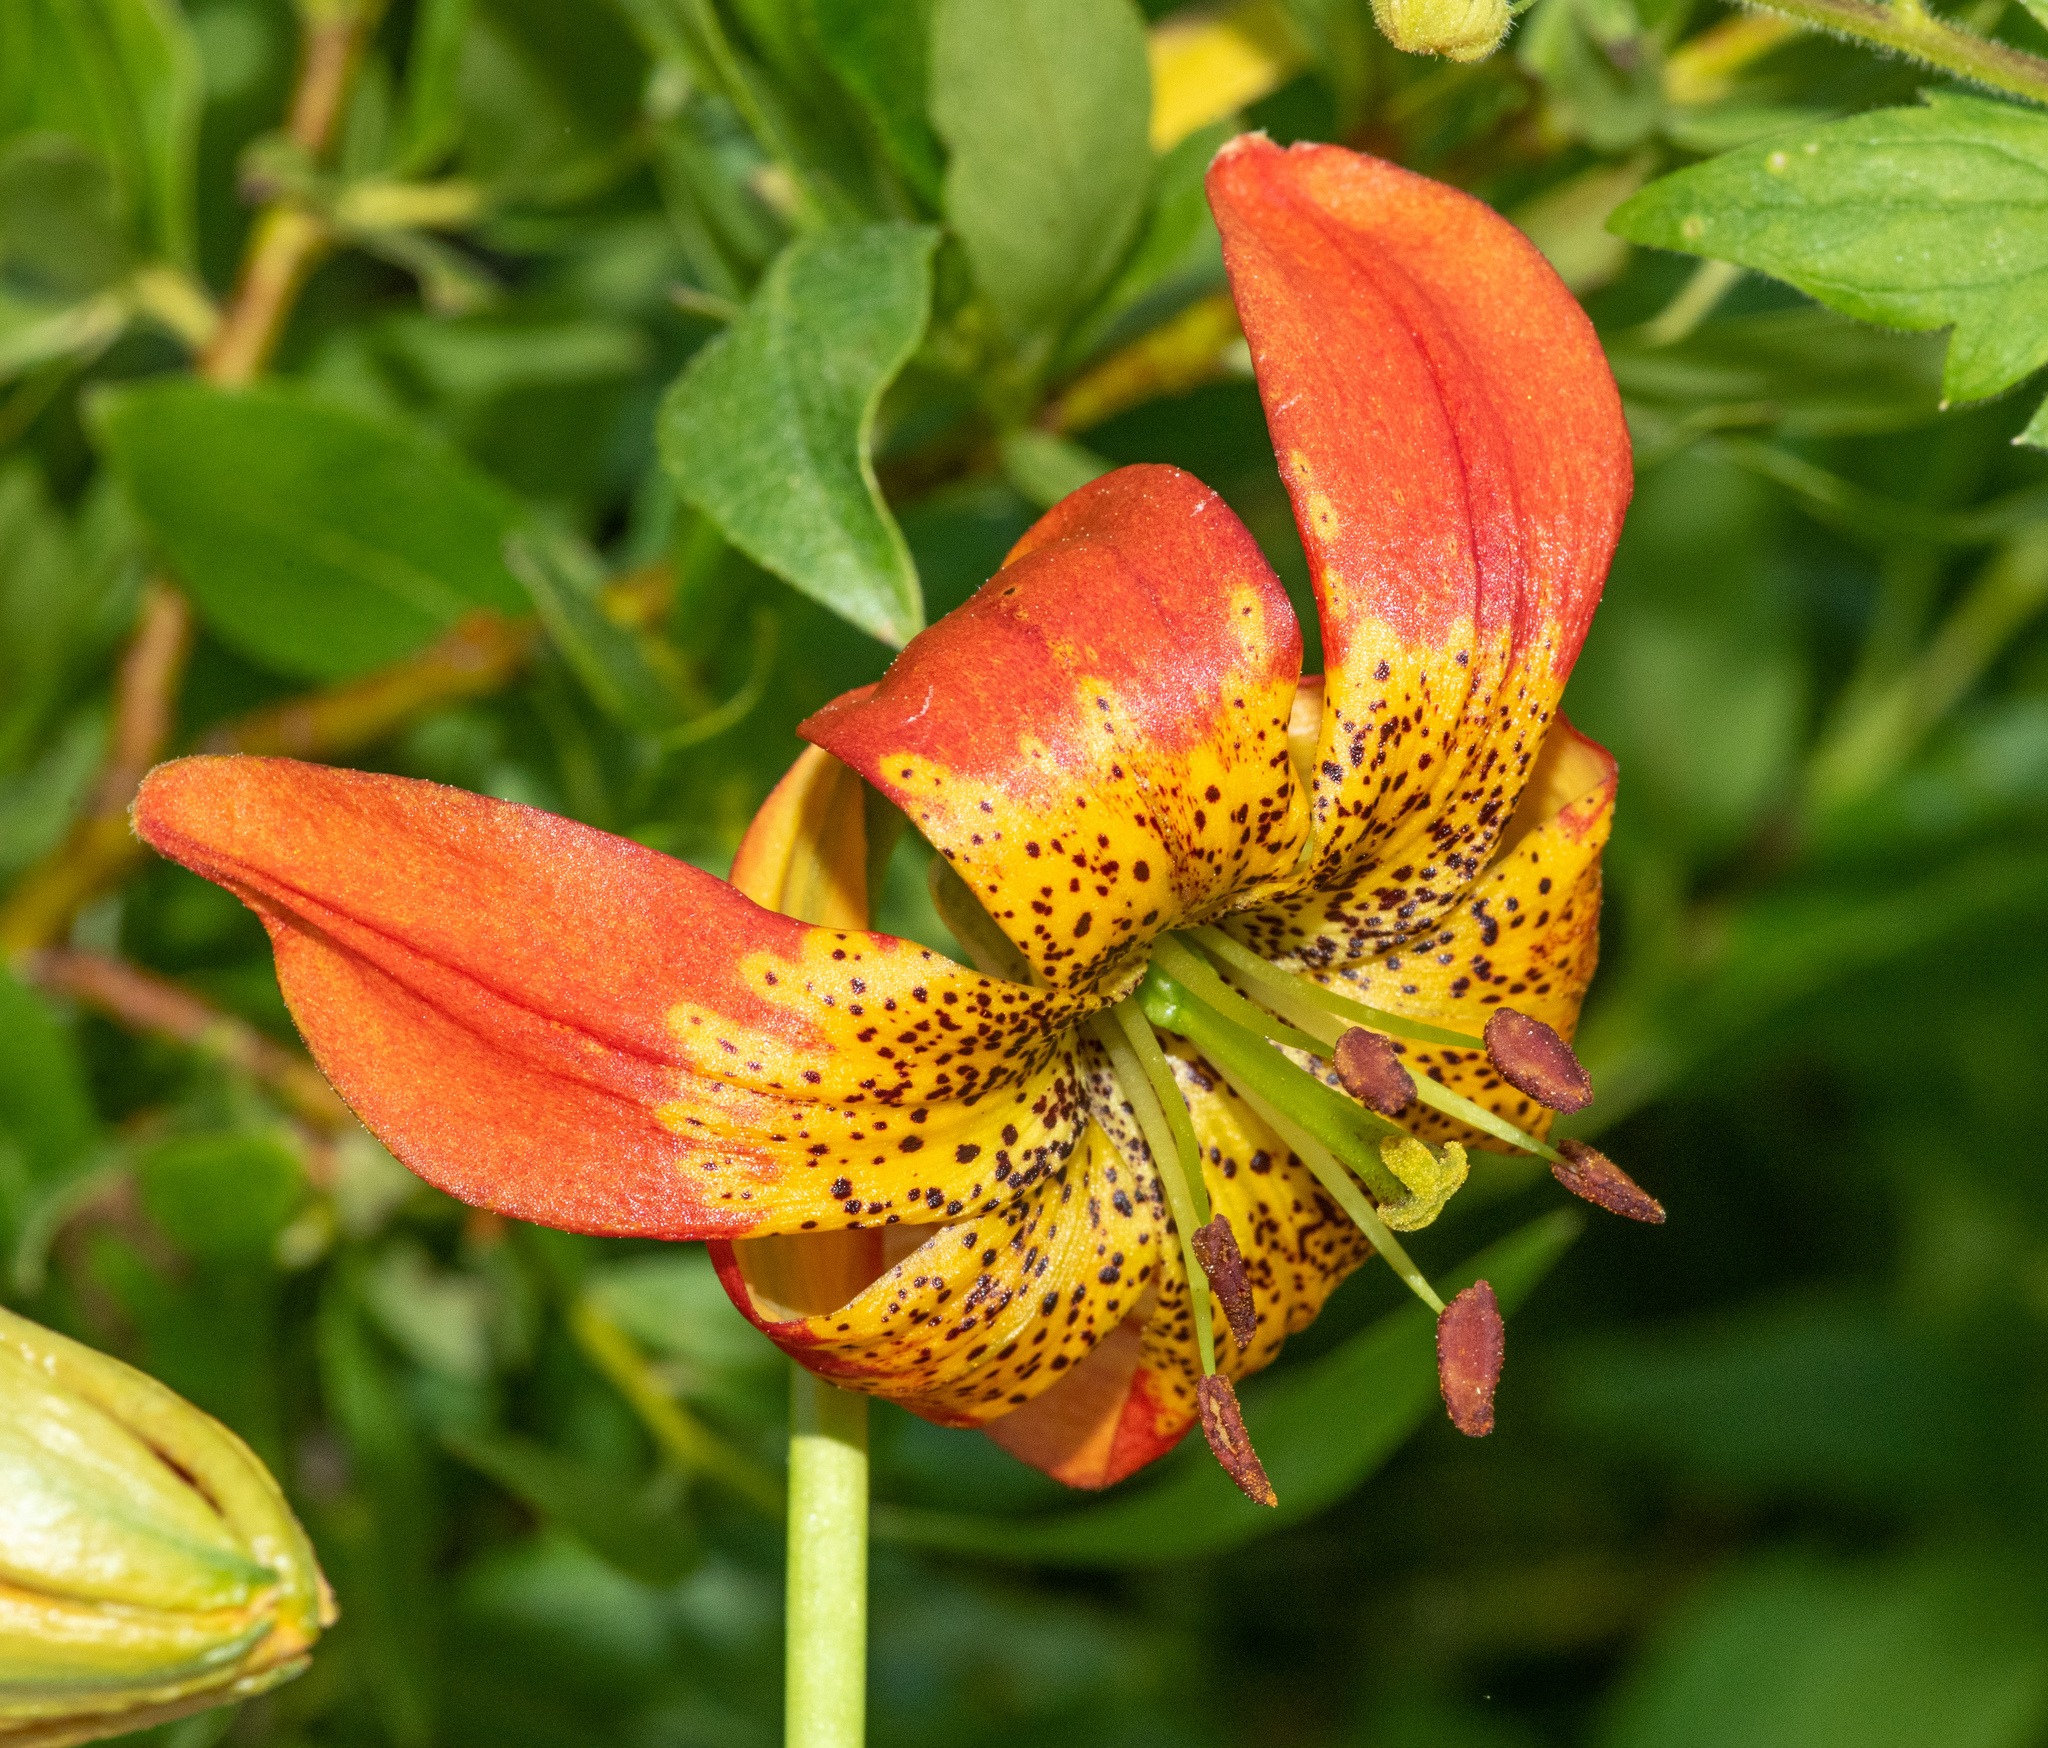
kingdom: Plantae
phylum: Tracheophyta
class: Liliopsida
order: Liliales
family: Liliaceae
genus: Lilium
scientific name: Lilium pardalinum
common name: Panther lily
